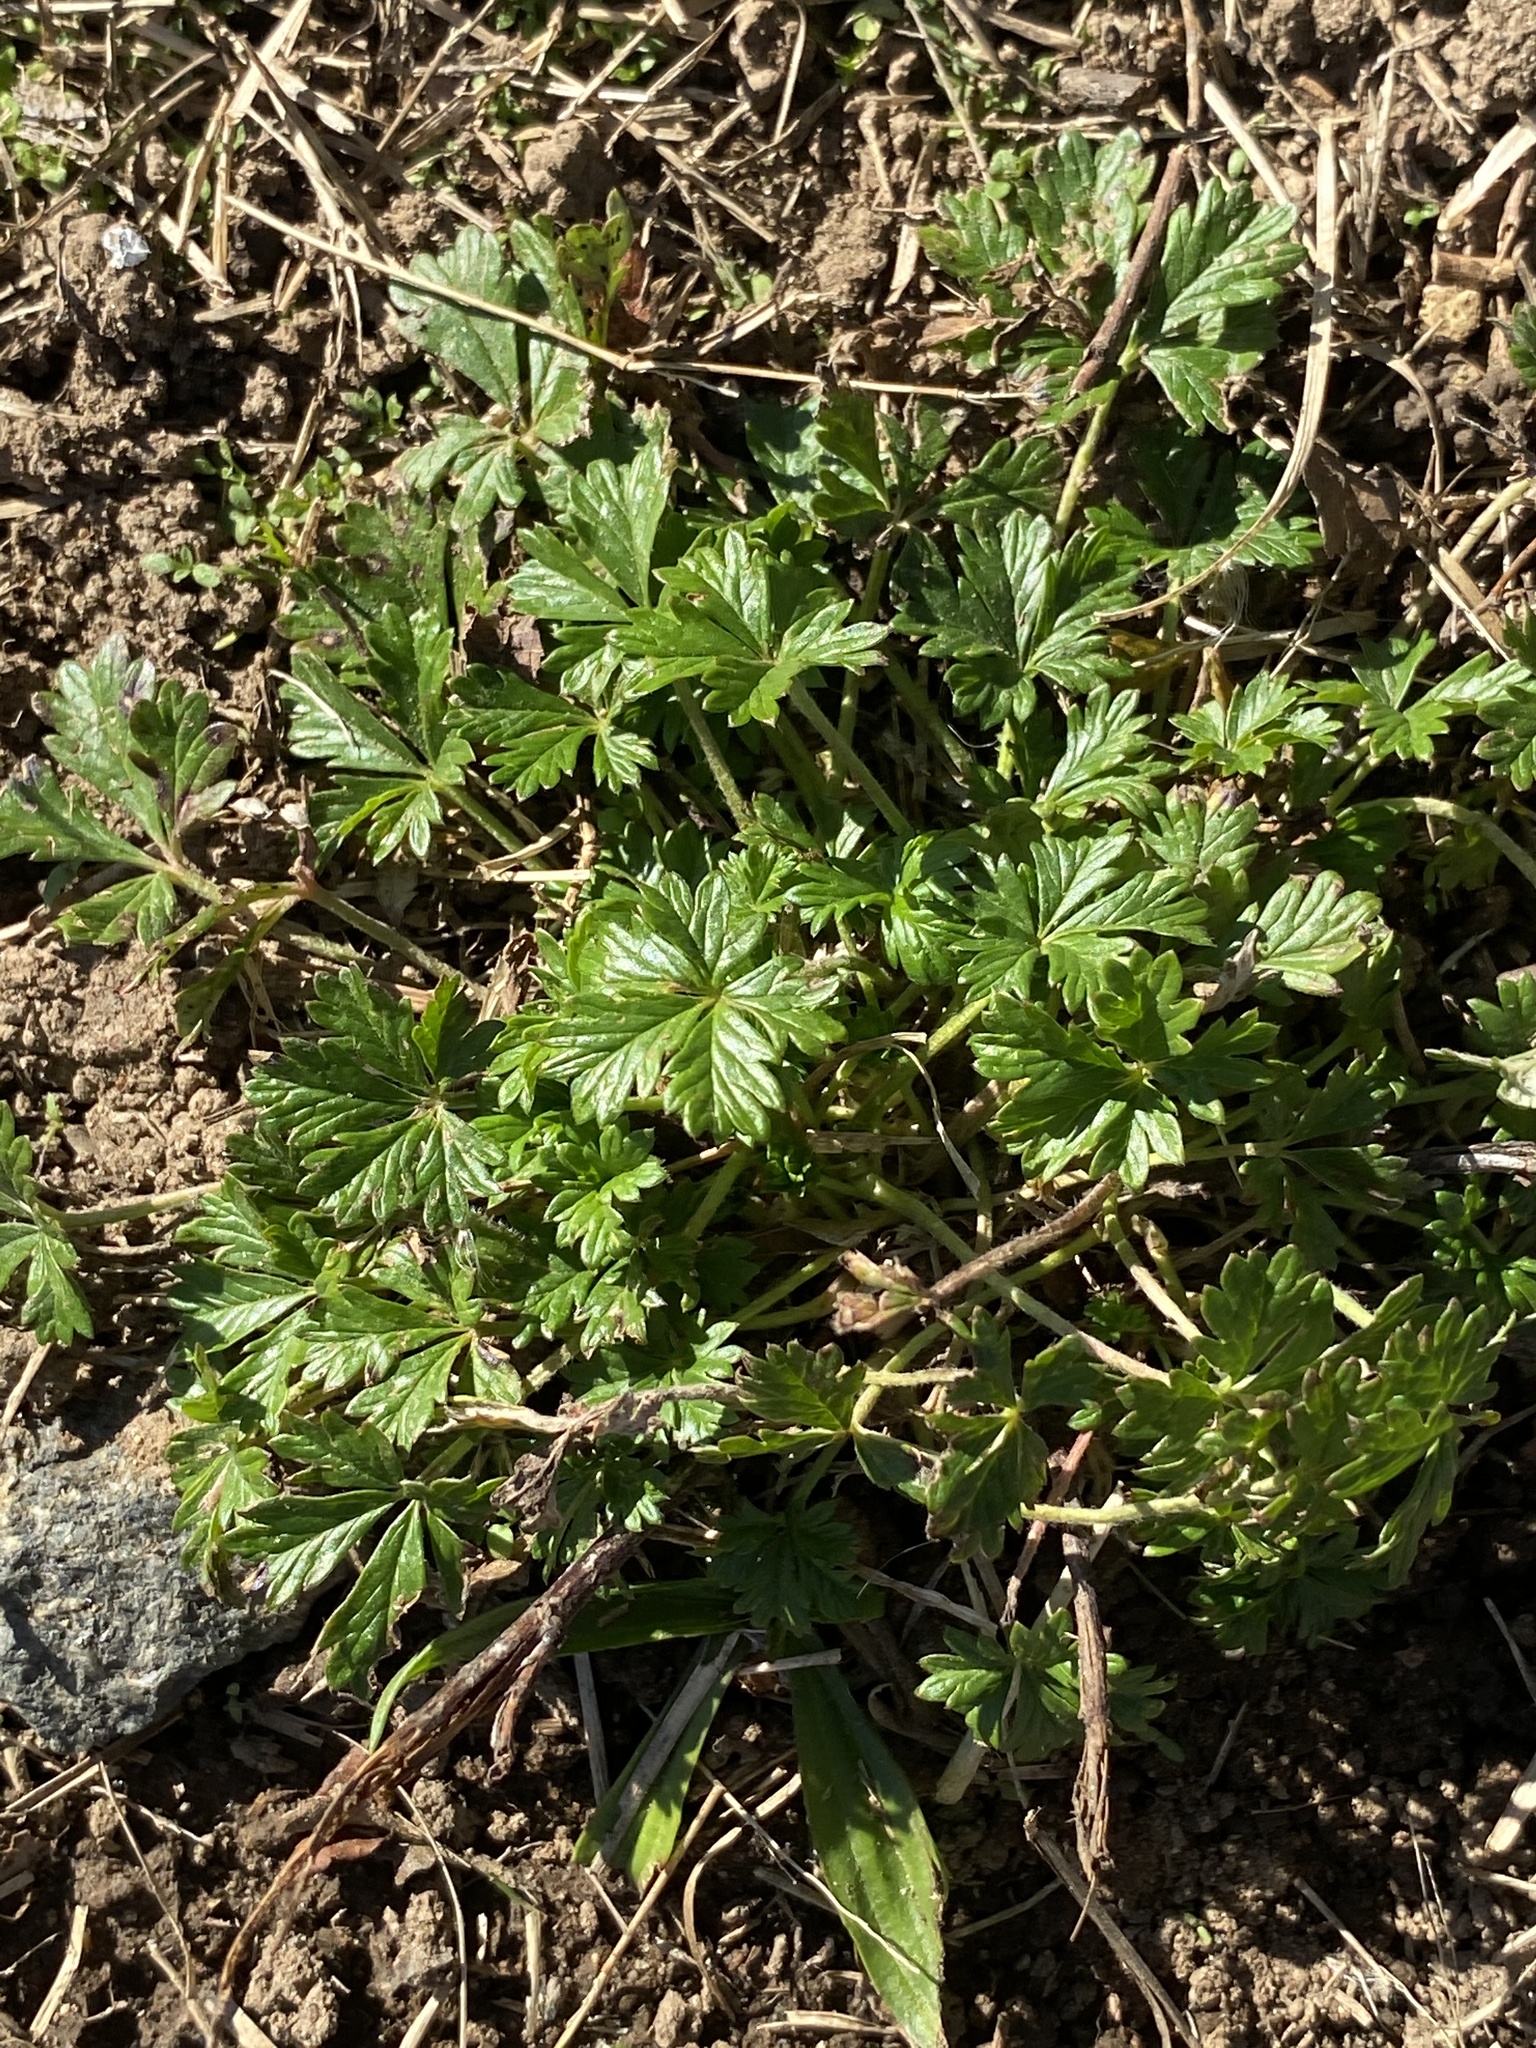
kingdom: Plantae
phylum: Tracheophyta
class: Magnoliopsida
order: Rosales
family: Rosaceae
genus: Potentilla
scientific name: Potentilla argentea
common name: Hoary cinquefoil
